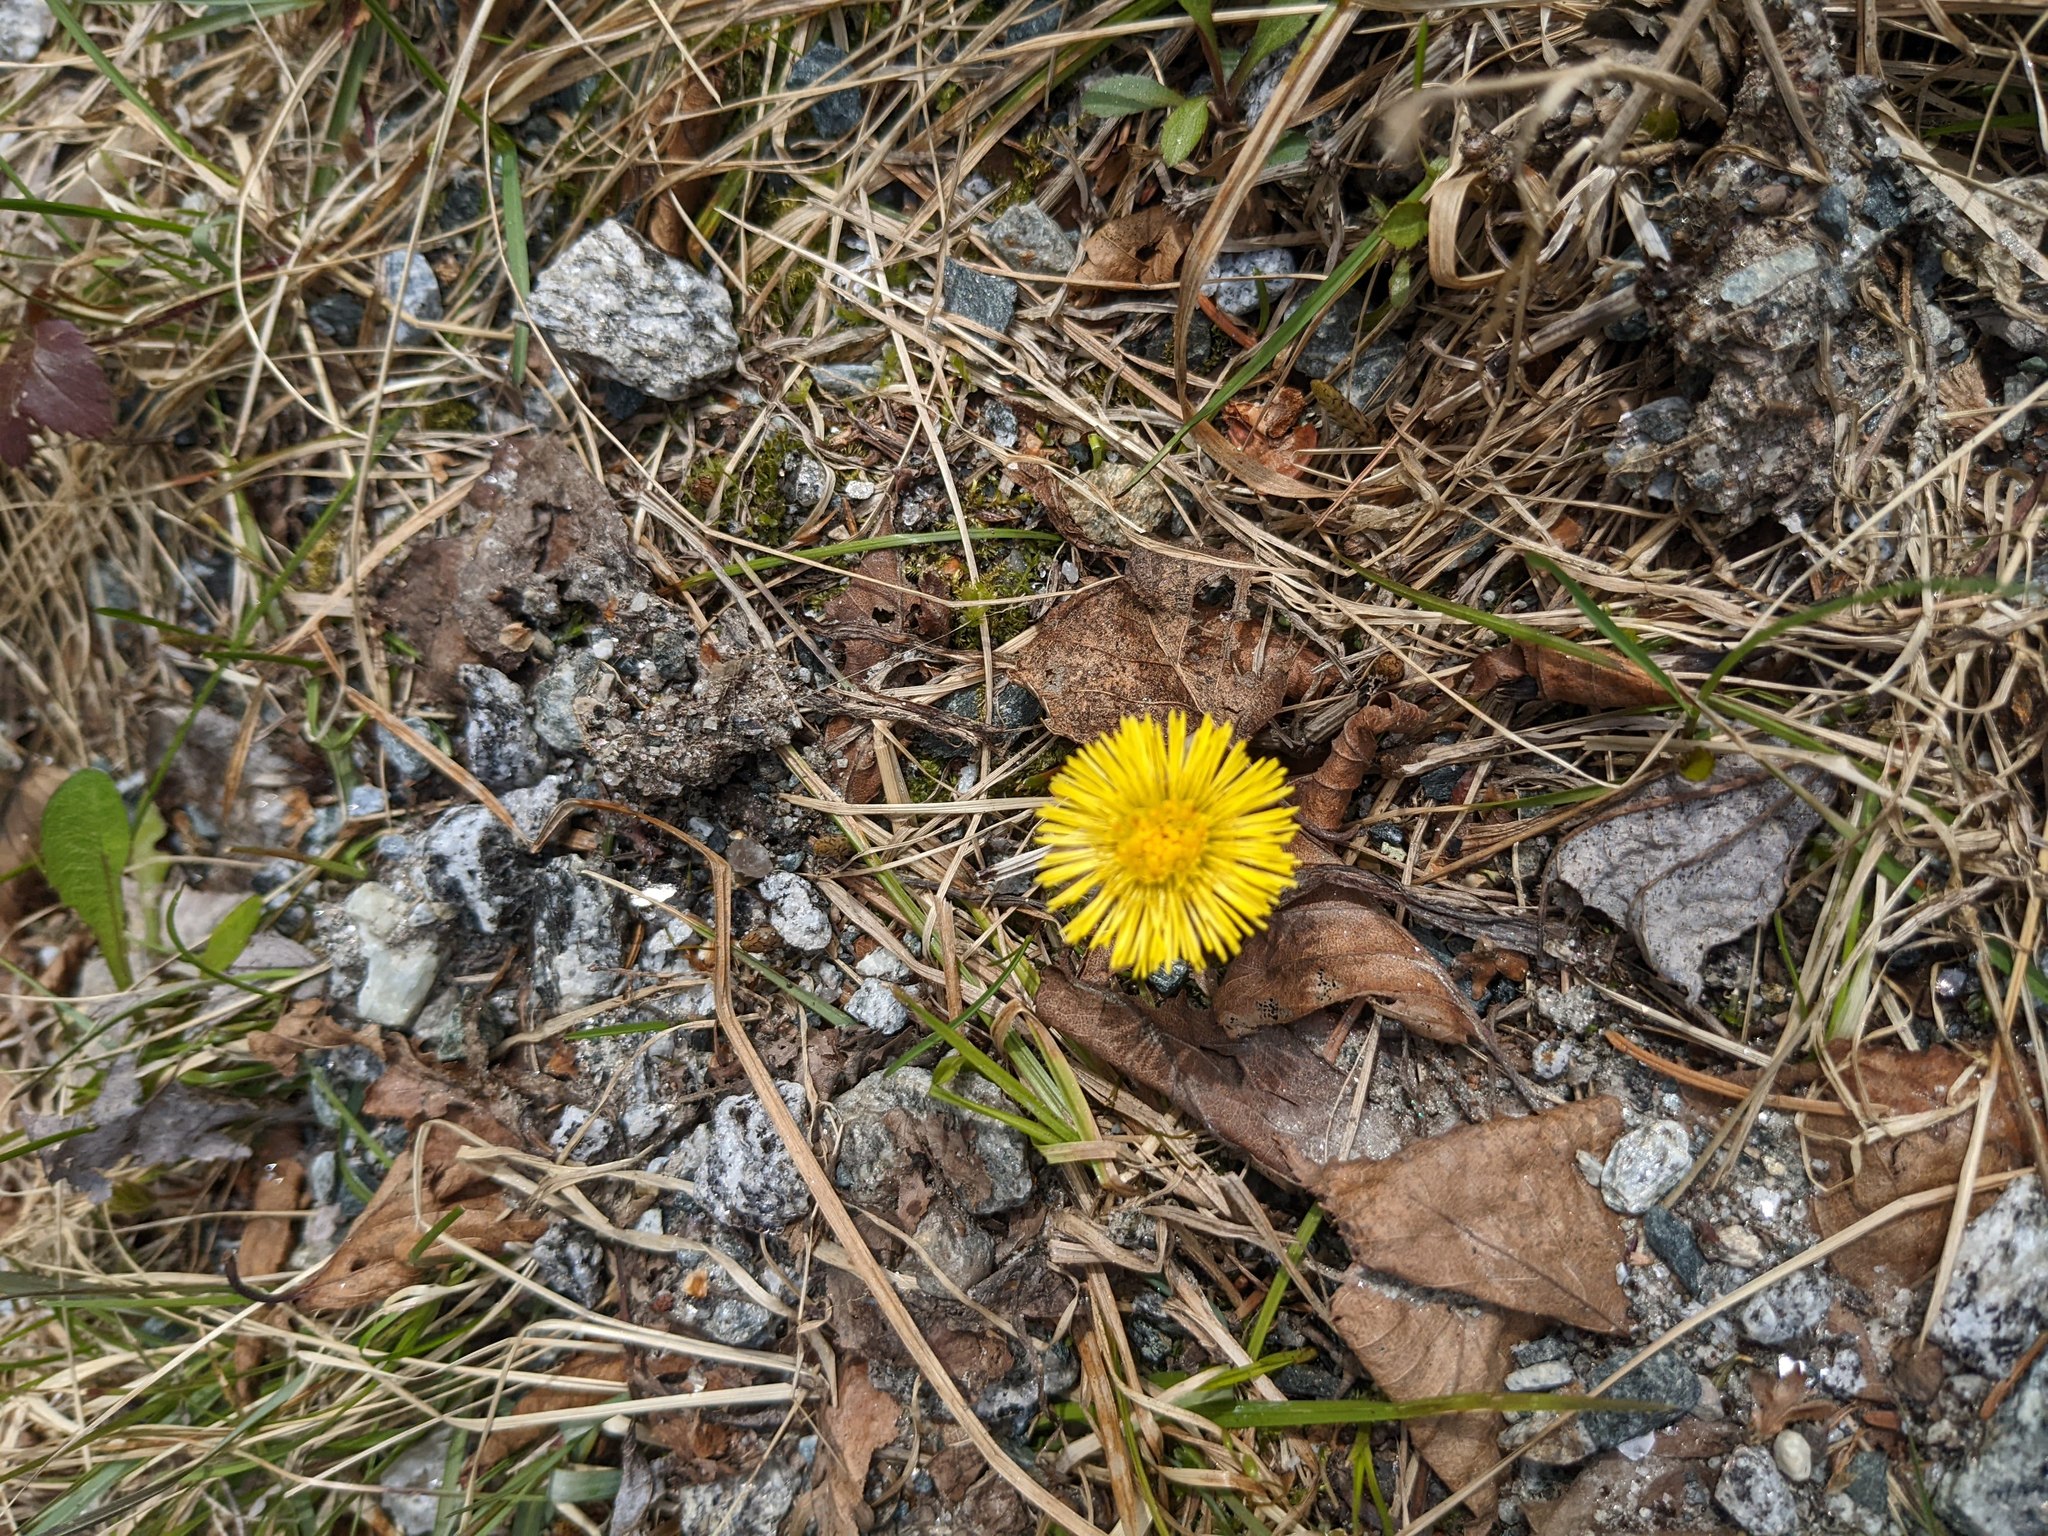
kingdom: Plantae
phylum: Tracheophyta
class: Magnoliopsida
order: Asterales
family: Asteraceae
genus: Tussilago
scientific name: Tussilago farfara
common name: Coltsfoot
